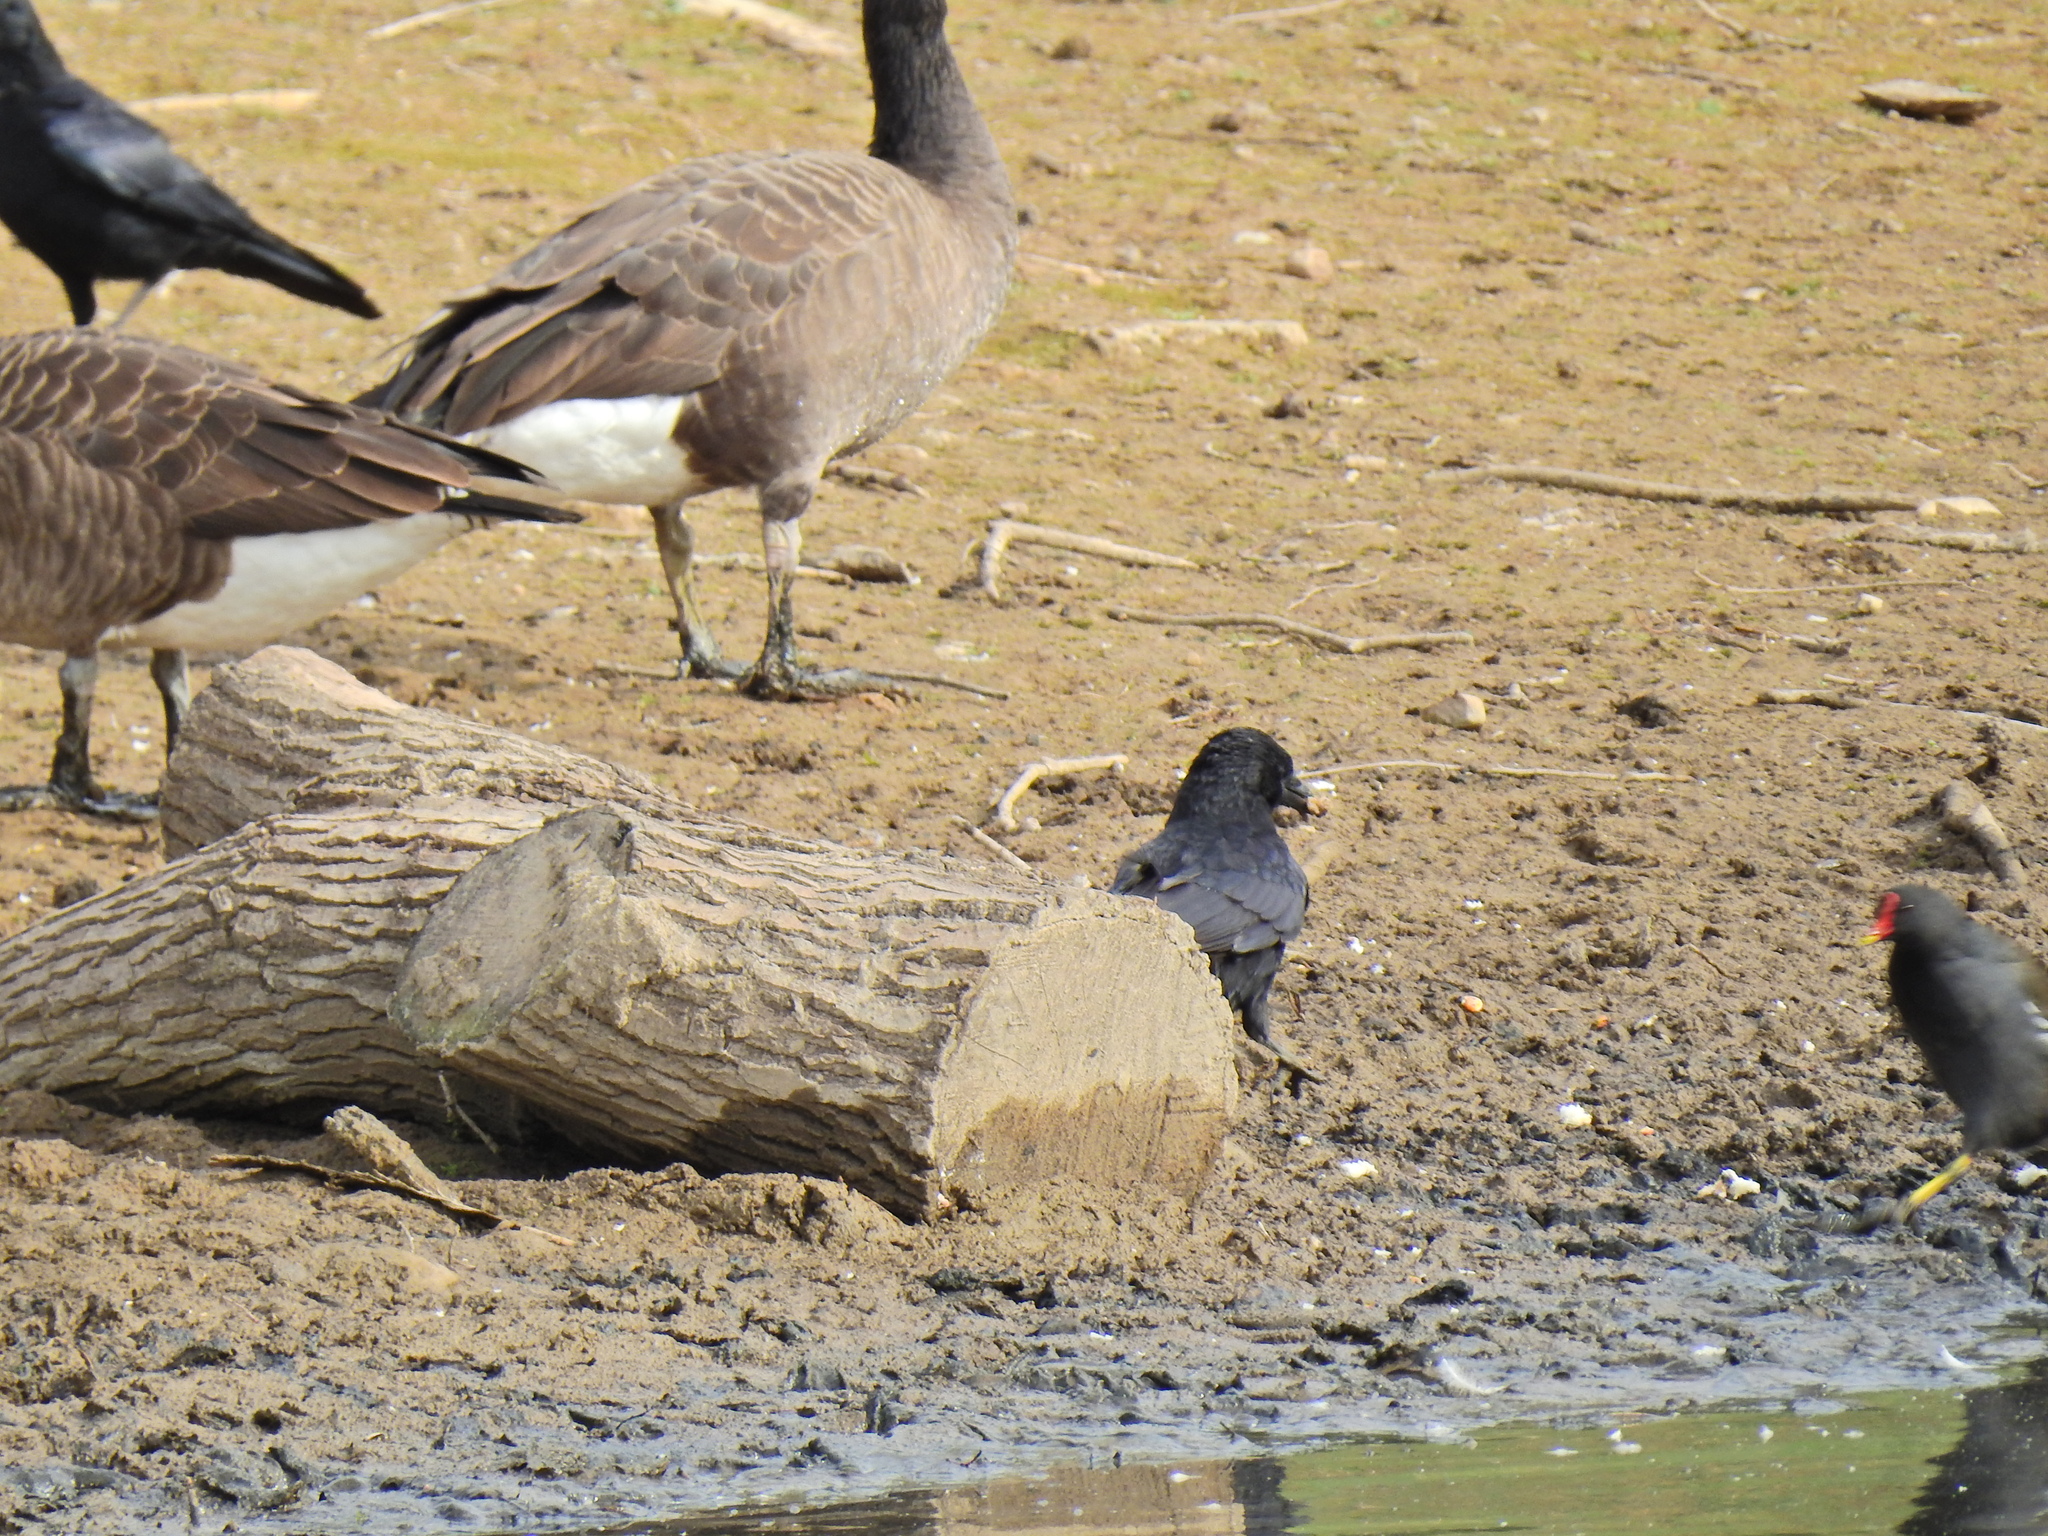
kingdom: Animalia
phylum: Chordata
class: Aves
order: Passeriformes
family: Corvidae
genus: Corvus
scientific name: Corvus corone
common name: Carrion crow
